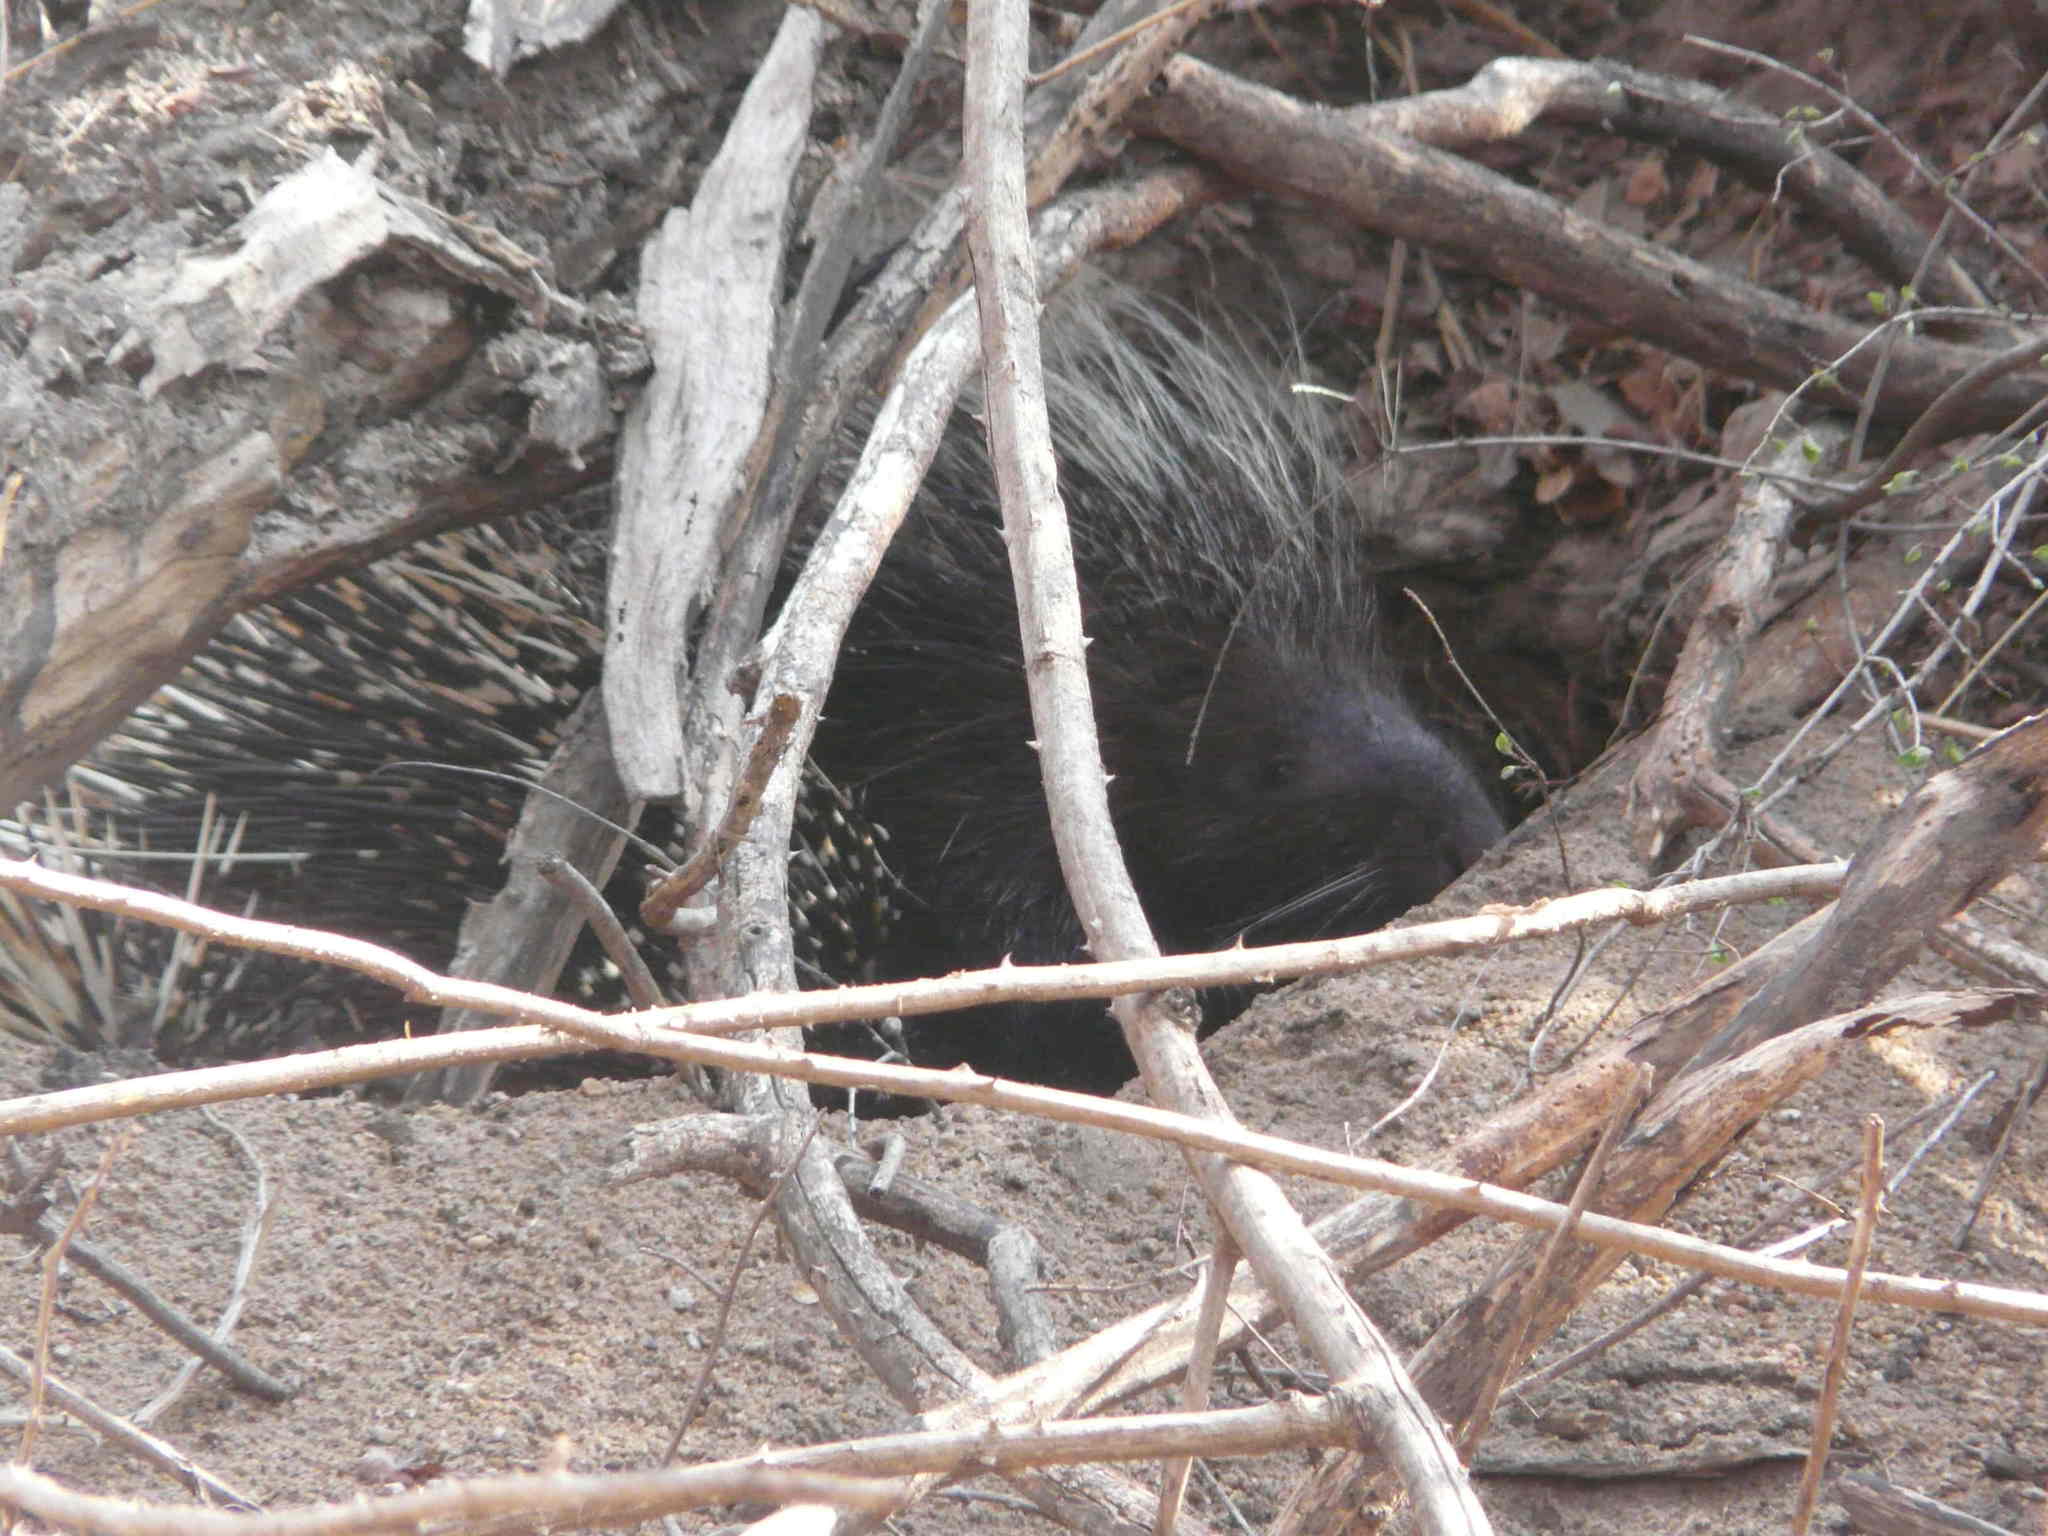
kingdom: Animalia
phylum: Chordata
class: Mammalia
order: Rodentia
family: Hystricidae
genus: Hystrix
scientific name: Hystrix africaeaustralis
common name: Cape porcupine
